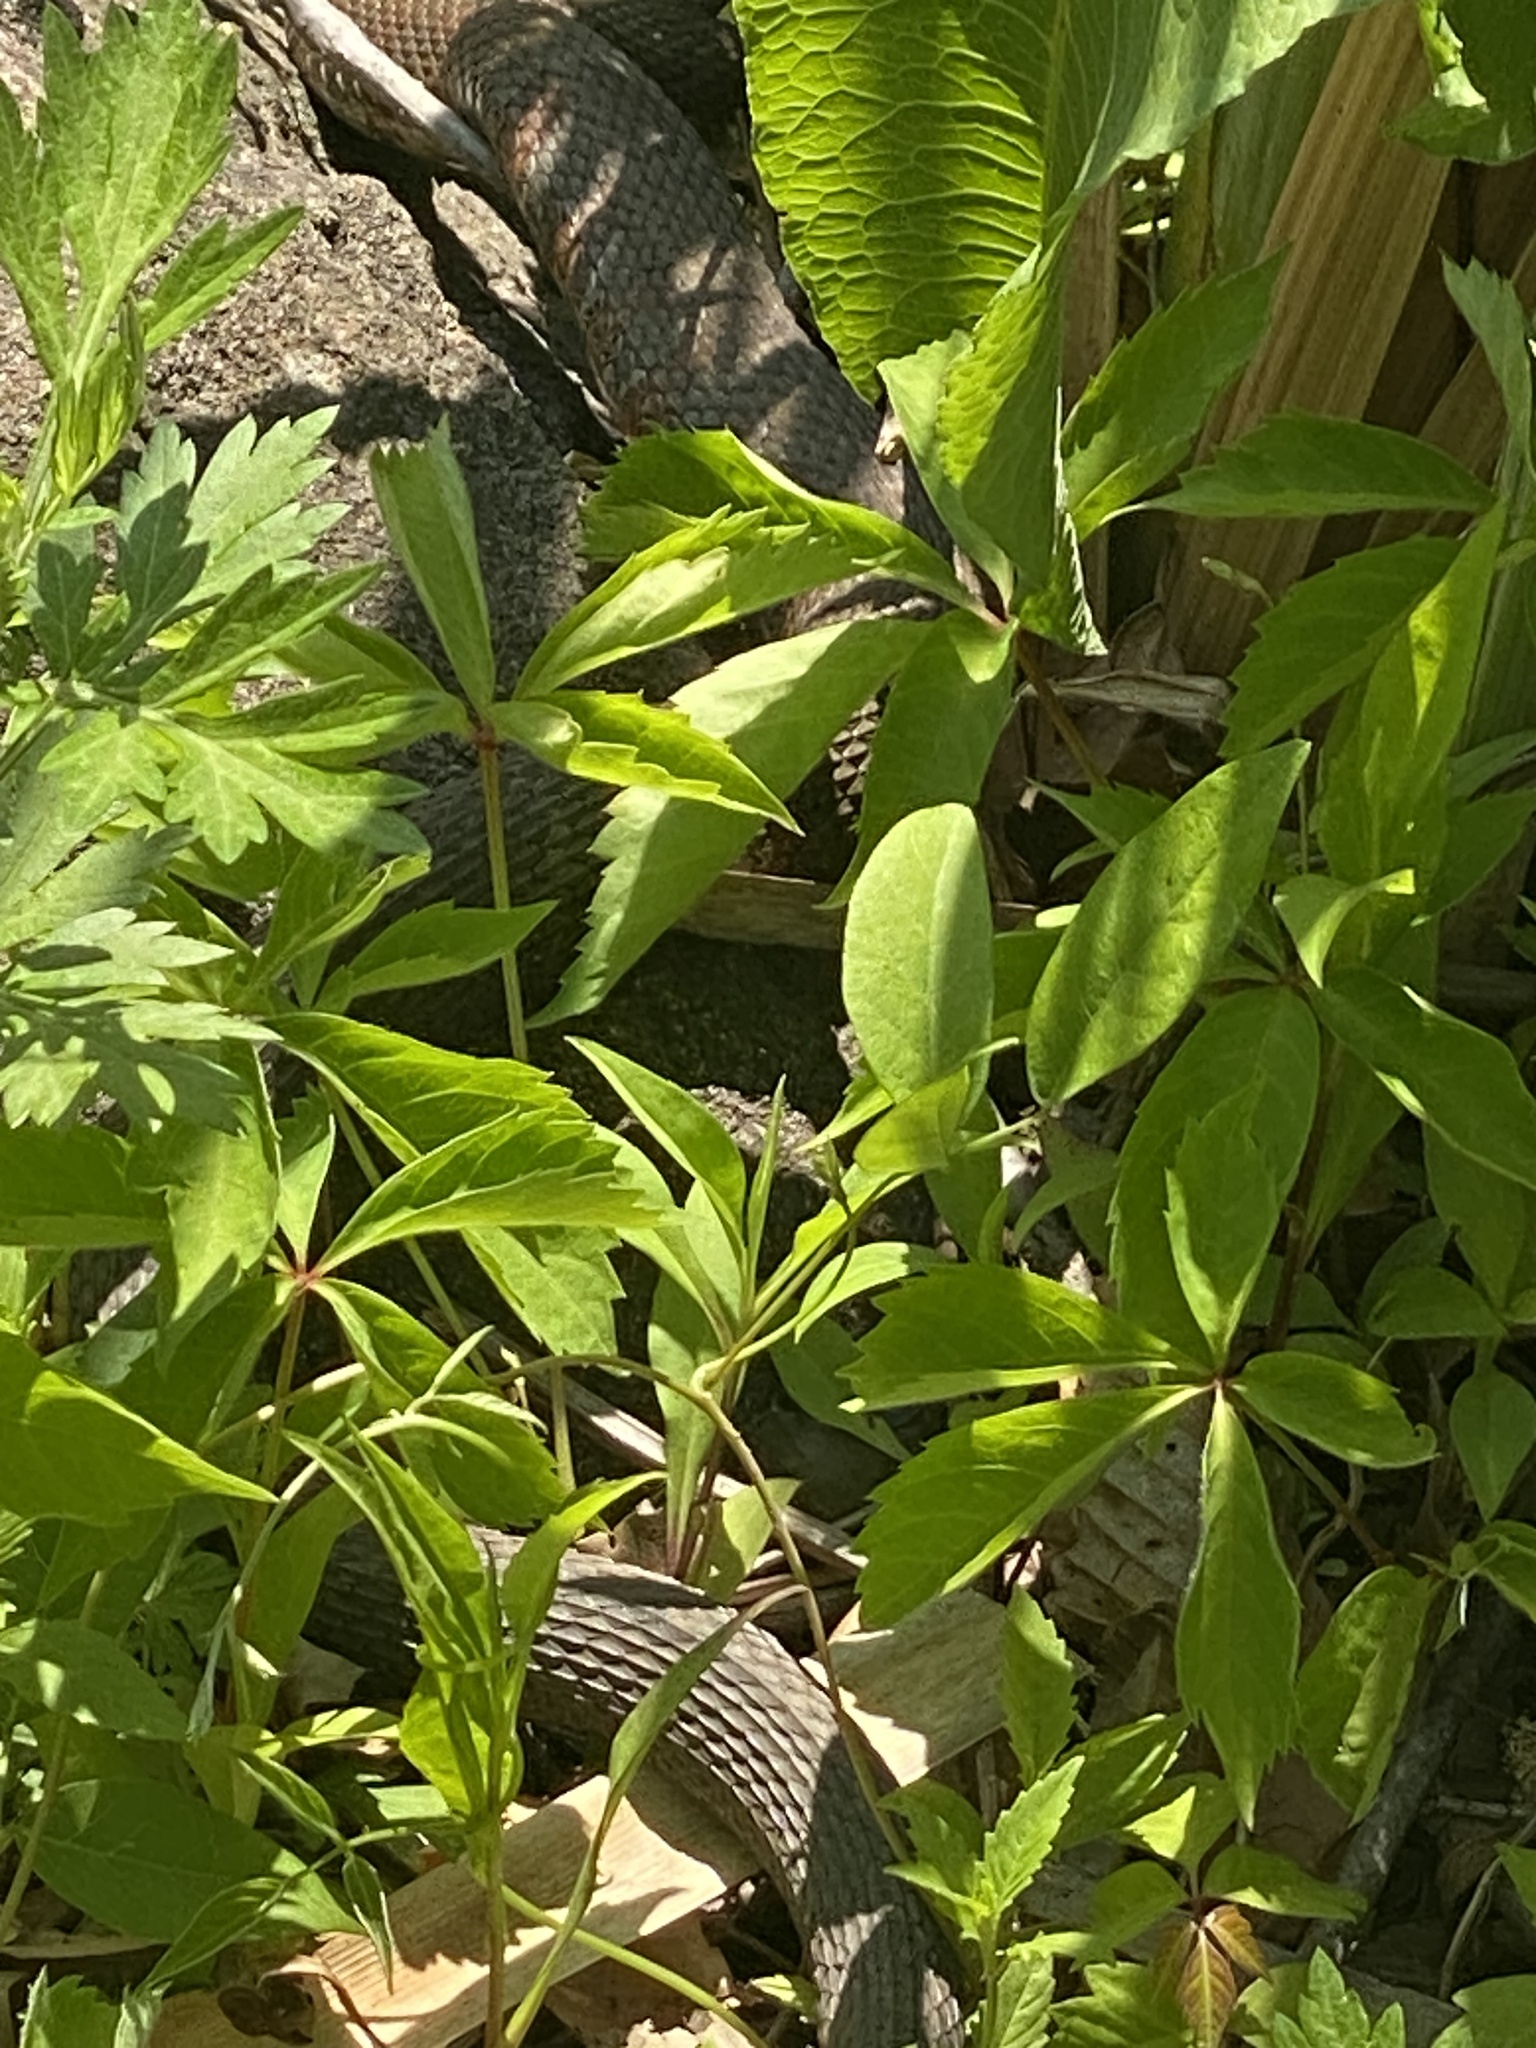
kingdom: Animalia
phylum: Chordata
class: Squamata
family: Colubridae
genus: Nerodia
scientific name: Nerodia sipedon
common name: Northern water snake
